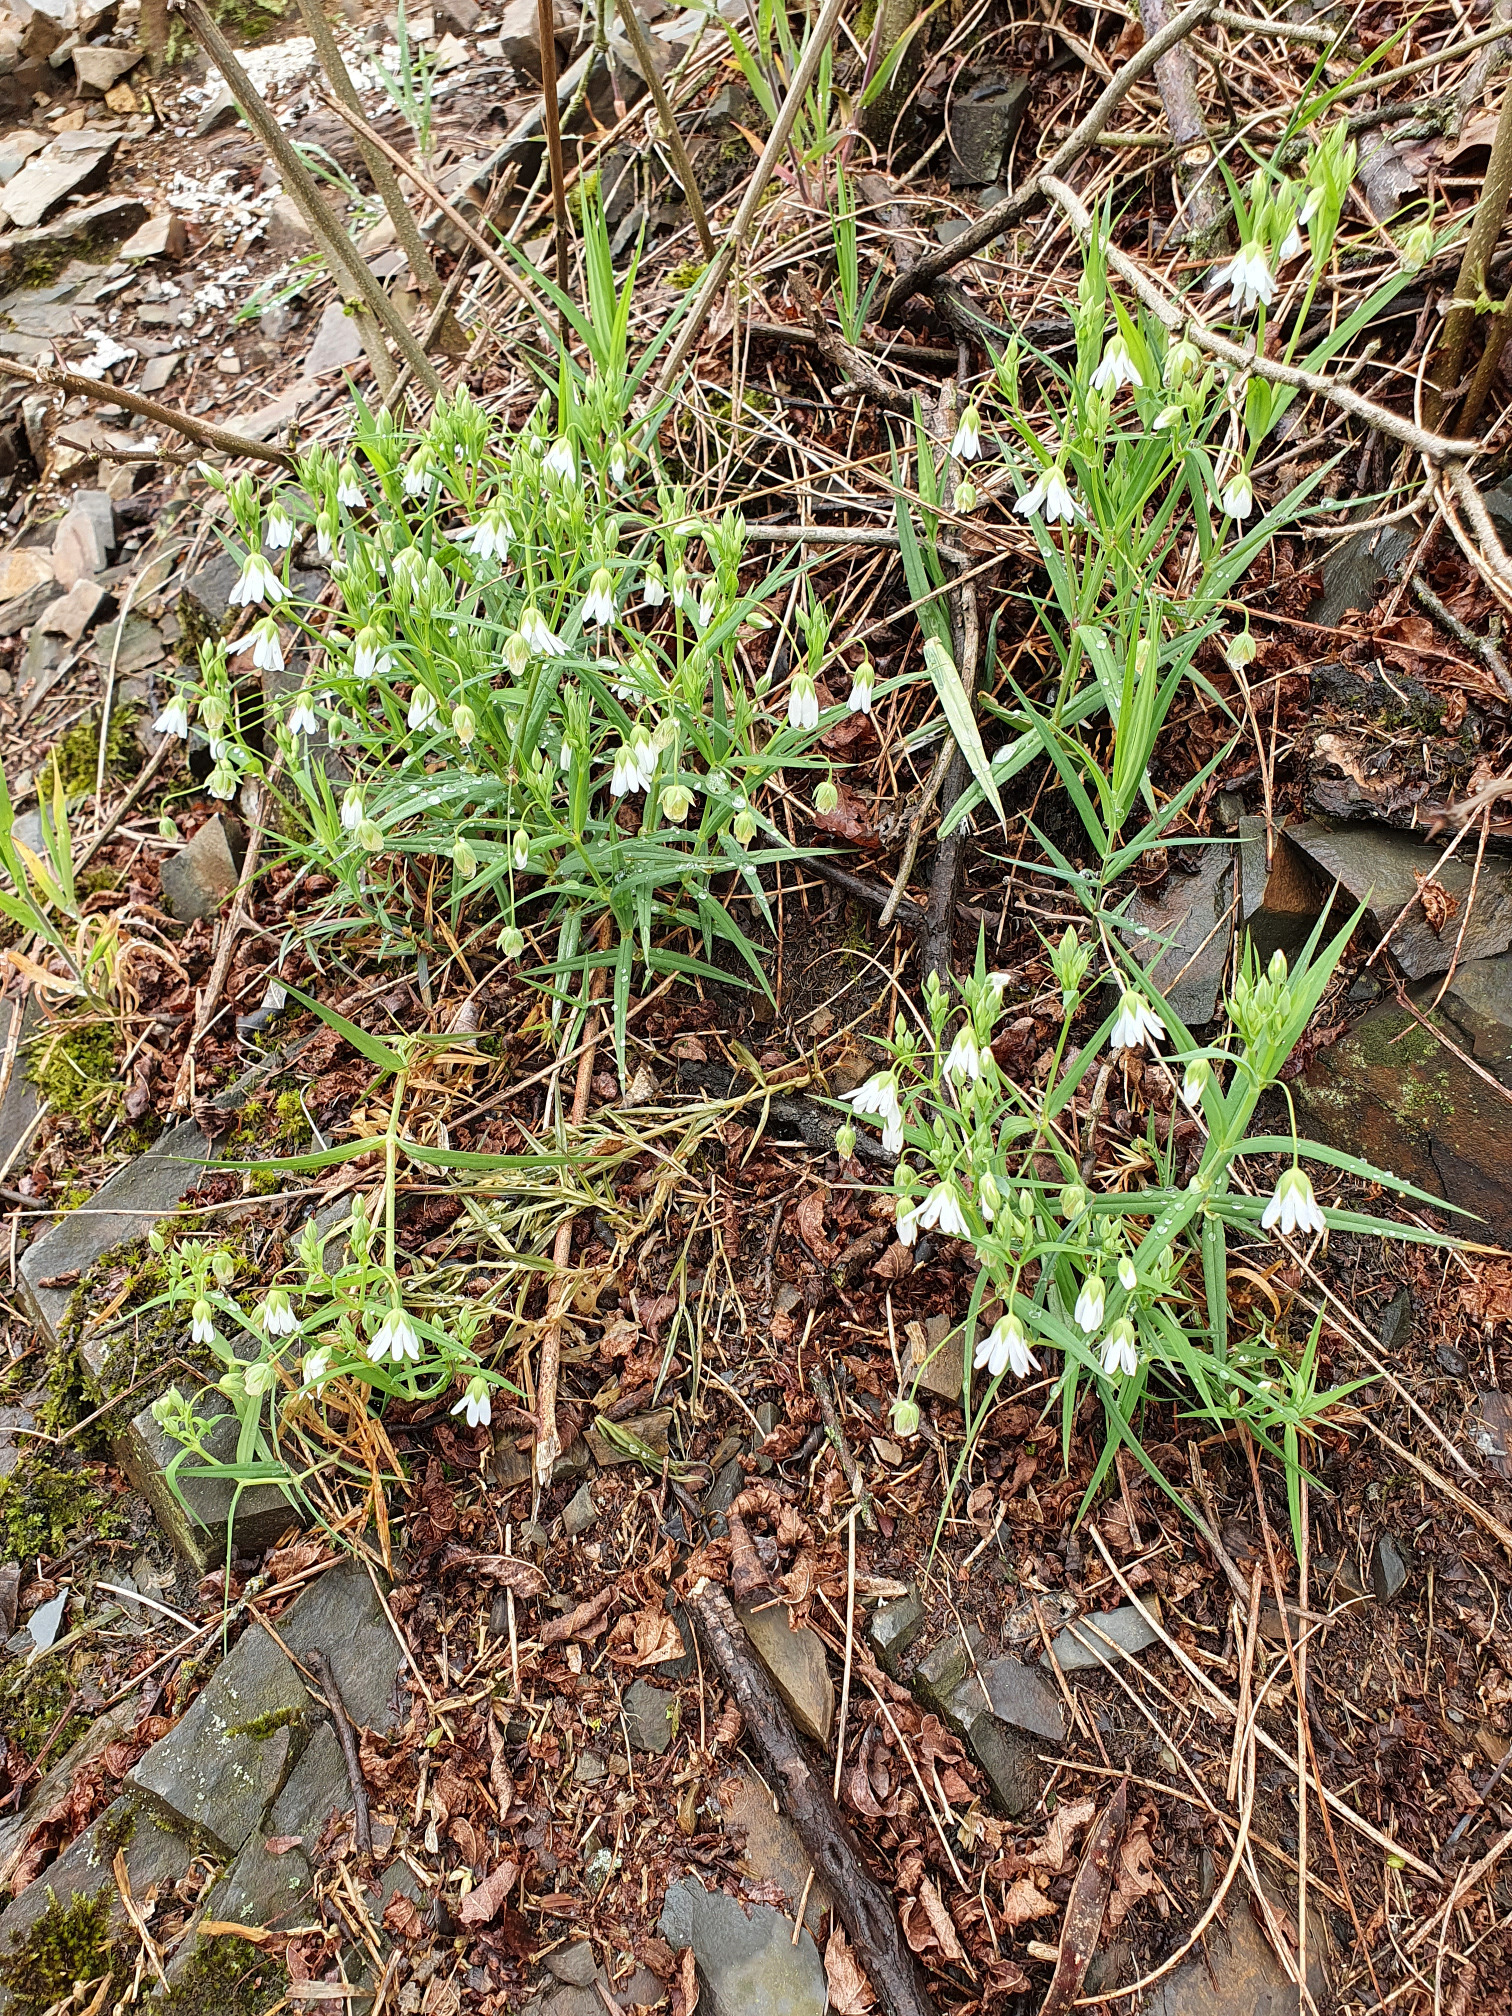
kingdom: Plantae
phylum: Tracheophyta
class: Magnoliopsida
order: Caryophyllales
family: Caryophyllaceae
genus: Rabelera
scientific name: Rabelera holostea
